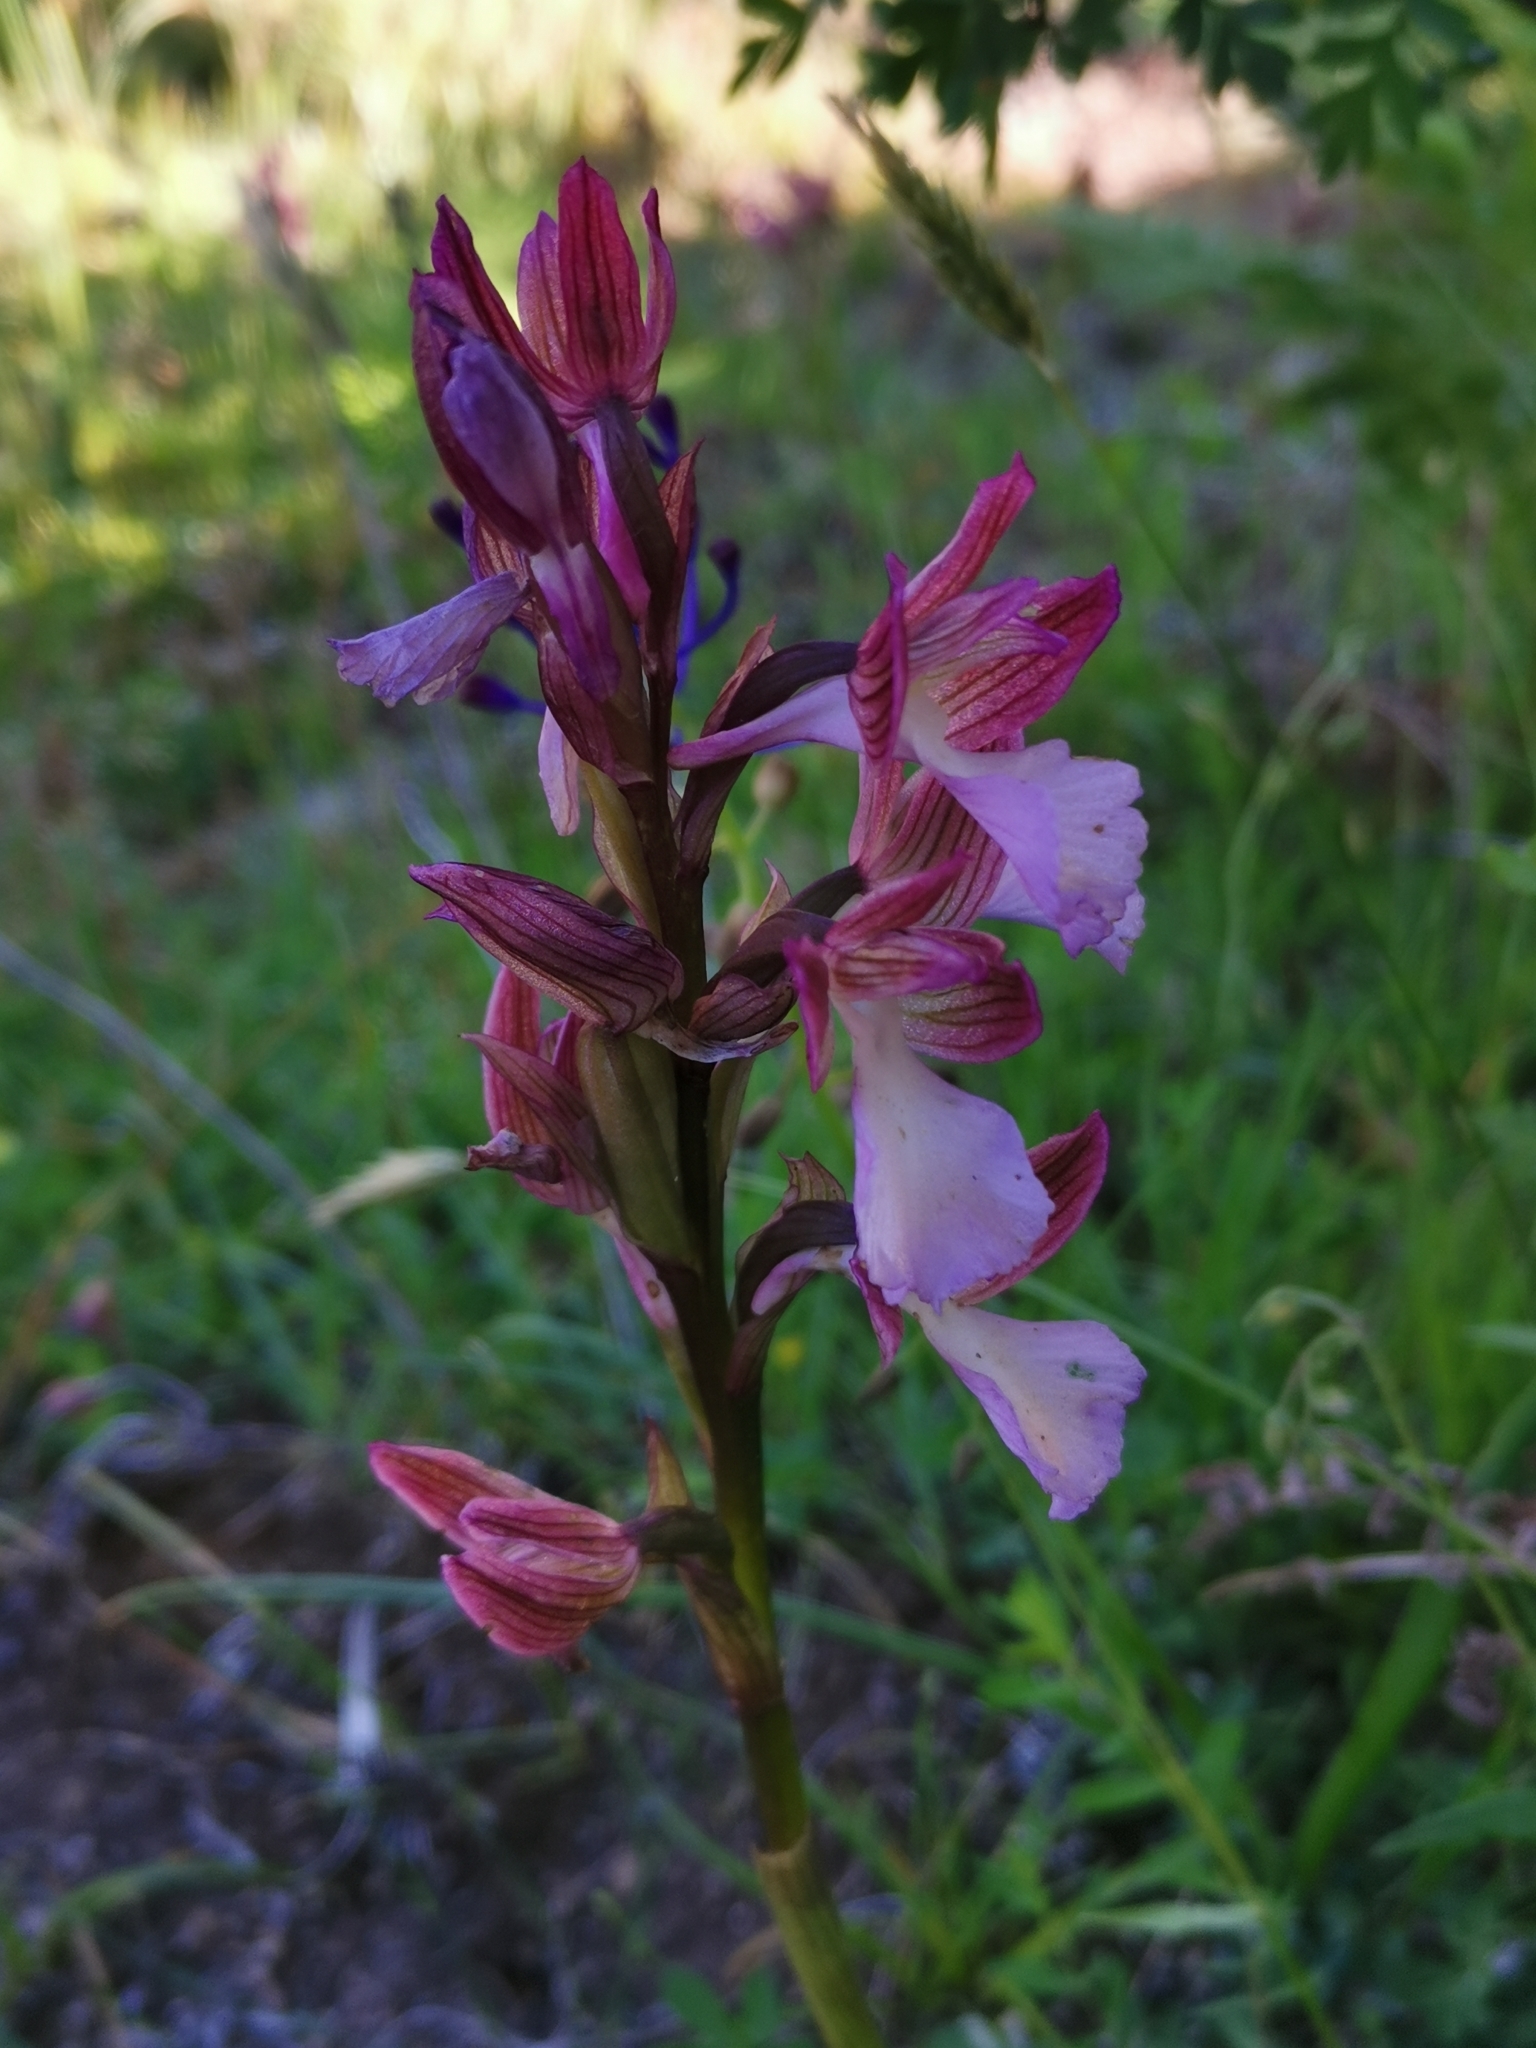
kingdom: Plantae
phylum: Tracheophyta
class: Liliopsida
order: Asparagales
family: Orchidaceae
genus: Anacamptis
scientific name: Anacamptis papilionacea
